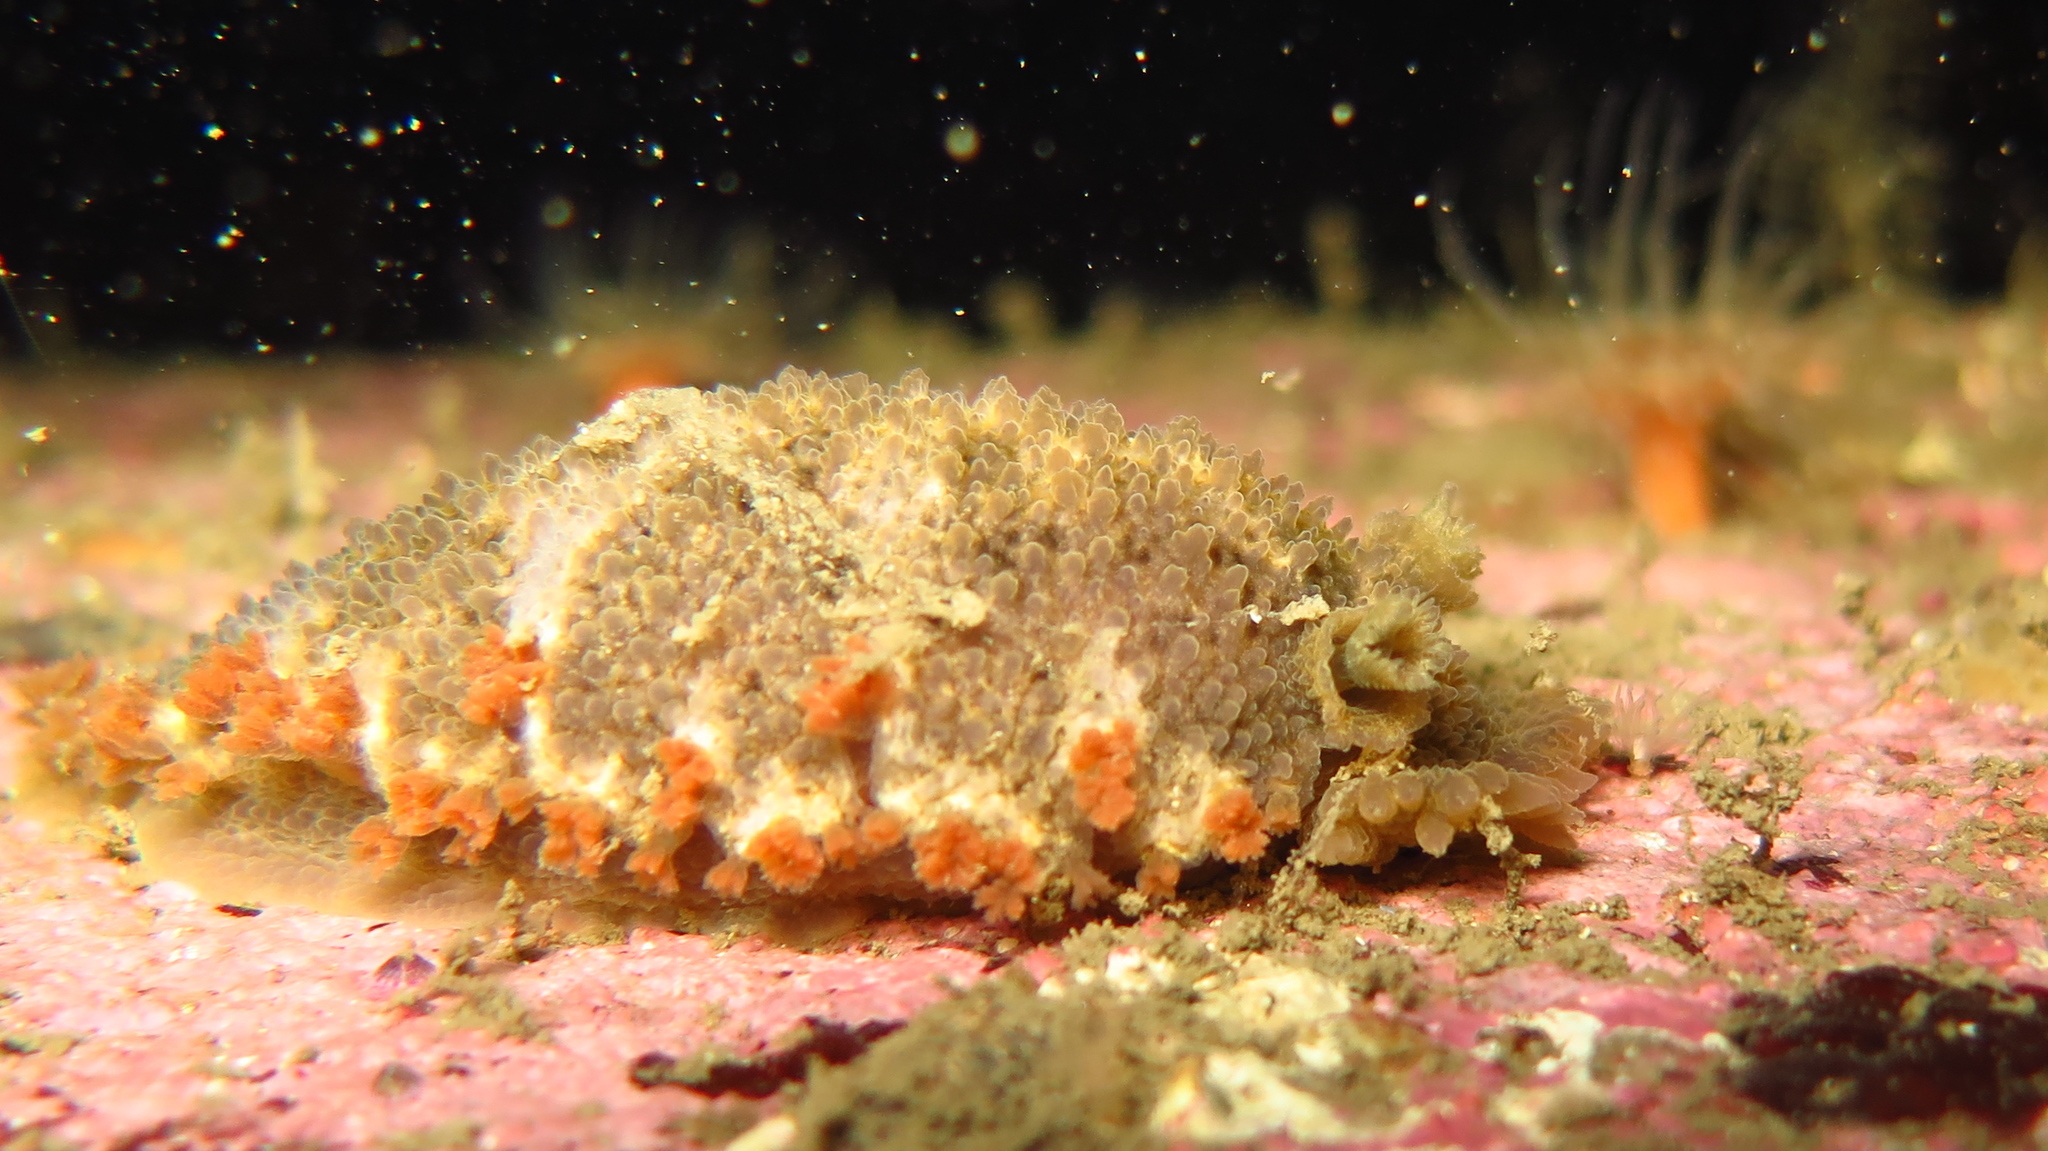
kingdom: Animalia
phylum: Mollusca
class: Gastropoda
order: Nudibranchia
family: Tritoniidae
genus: Tritonia
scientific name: Tritonia hombergii
